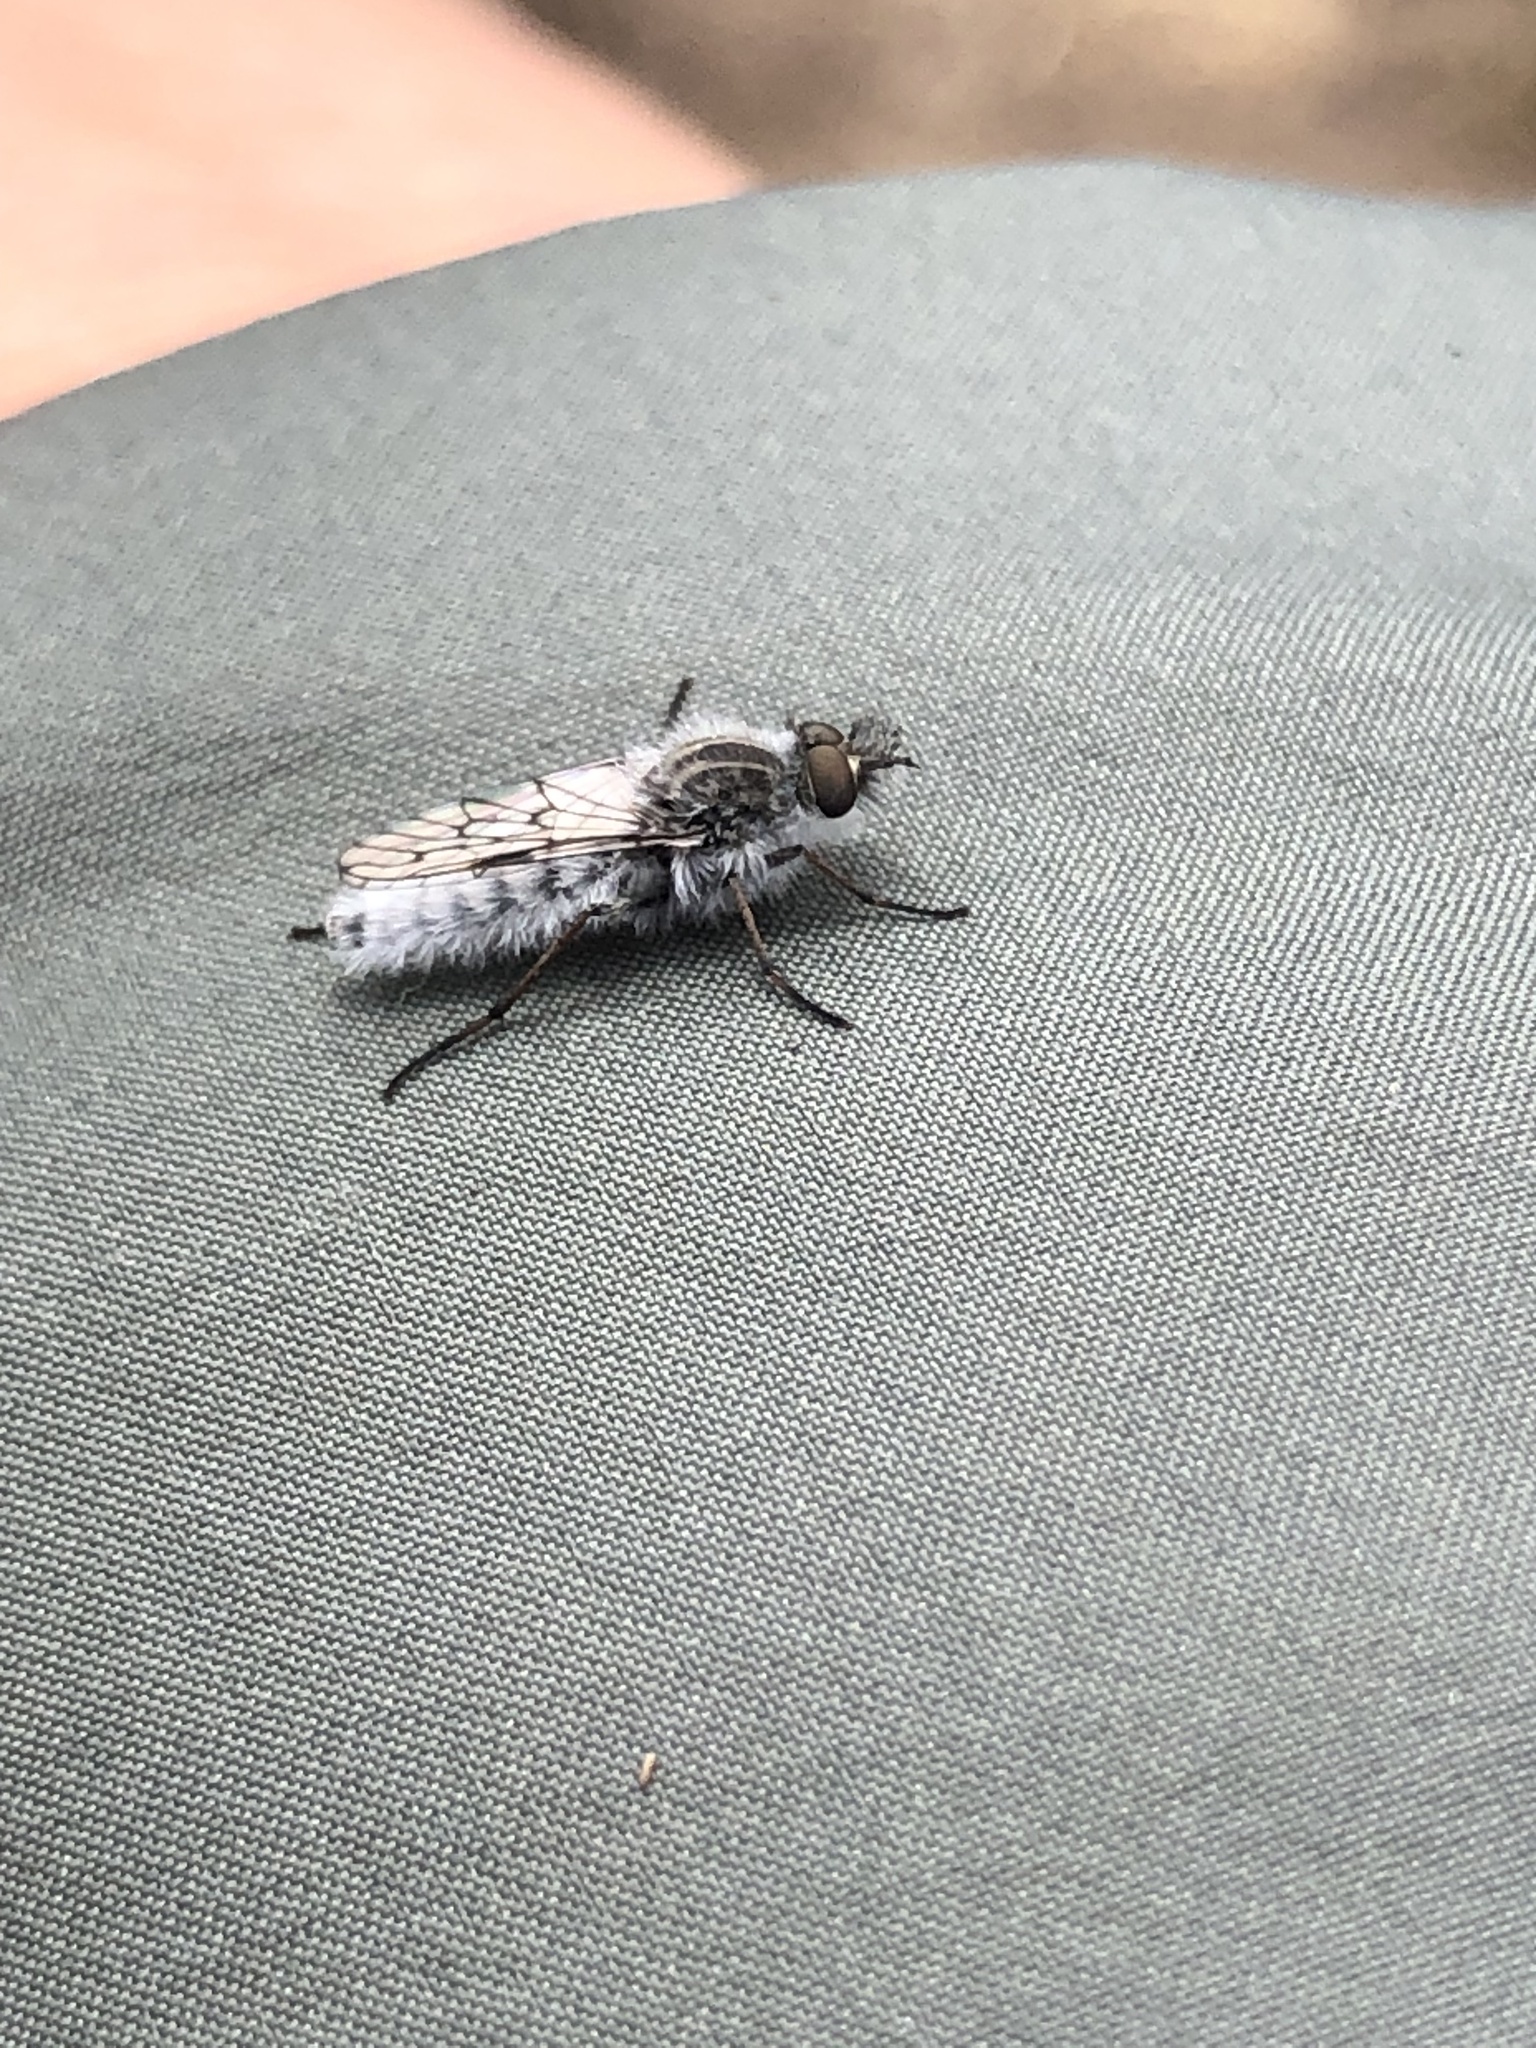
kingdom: Animalia
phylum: Arthropoda
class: Insecta
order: Diptera
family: Therevidae
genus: Tabudamima
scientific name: Tabudamima melanophleba
